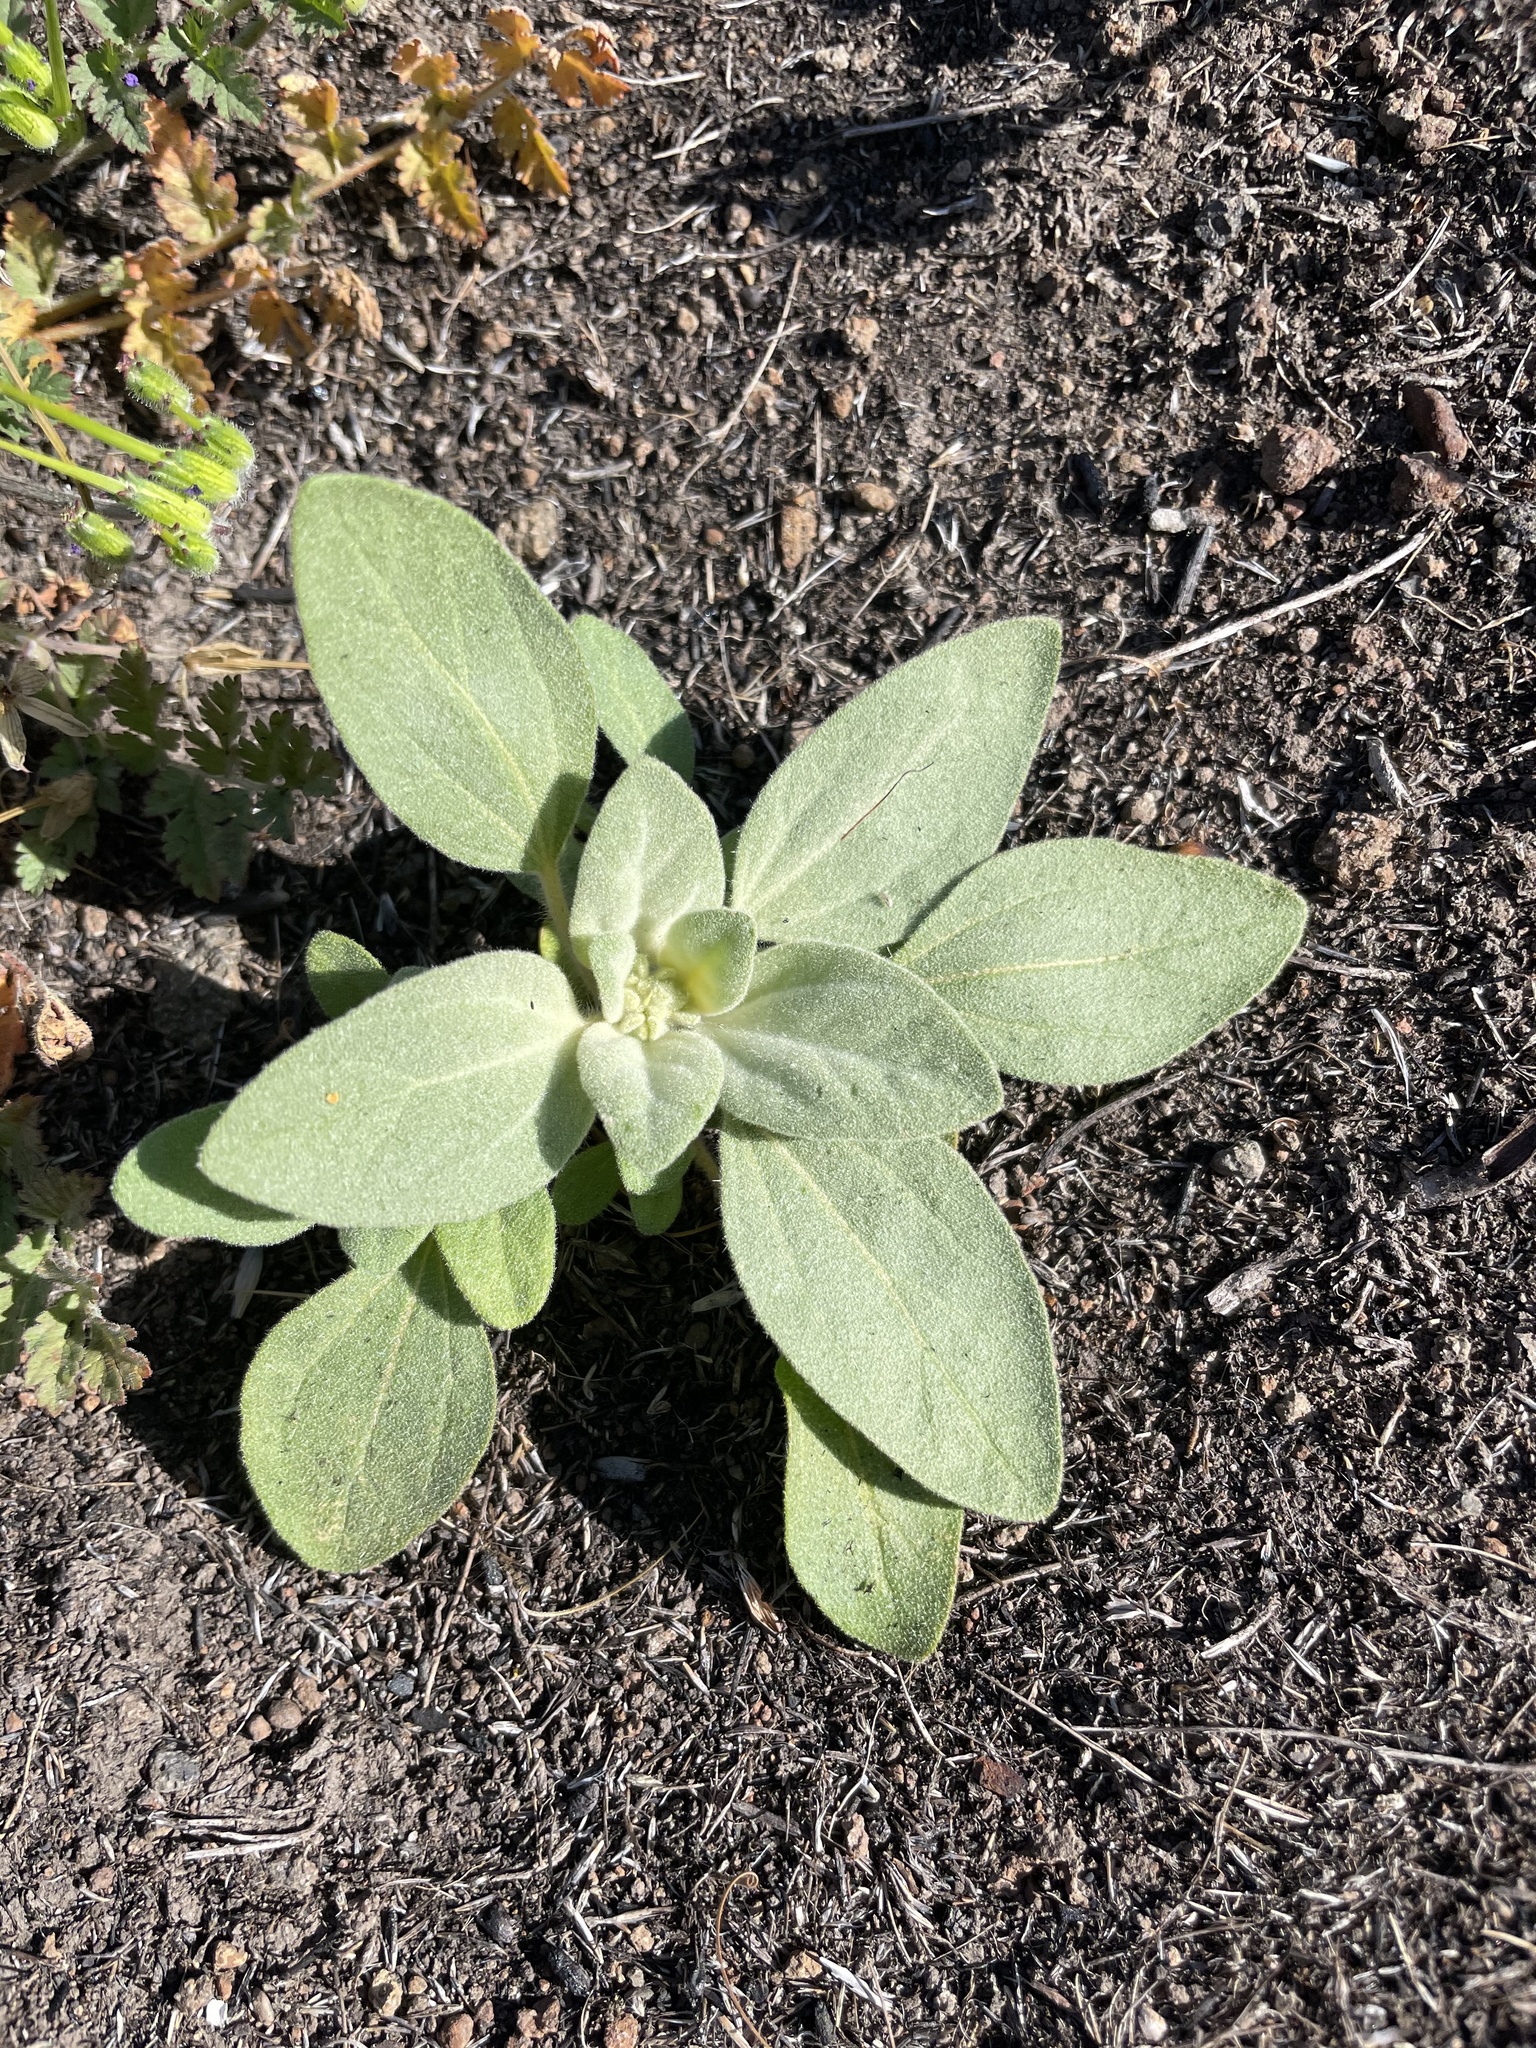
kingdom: Plantae
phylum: Tracheophyta
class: Magnoliopsida
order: Malpighiales
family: Euphorbiaceae
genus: Croton
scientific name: Croton setiger
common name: Dove weed
